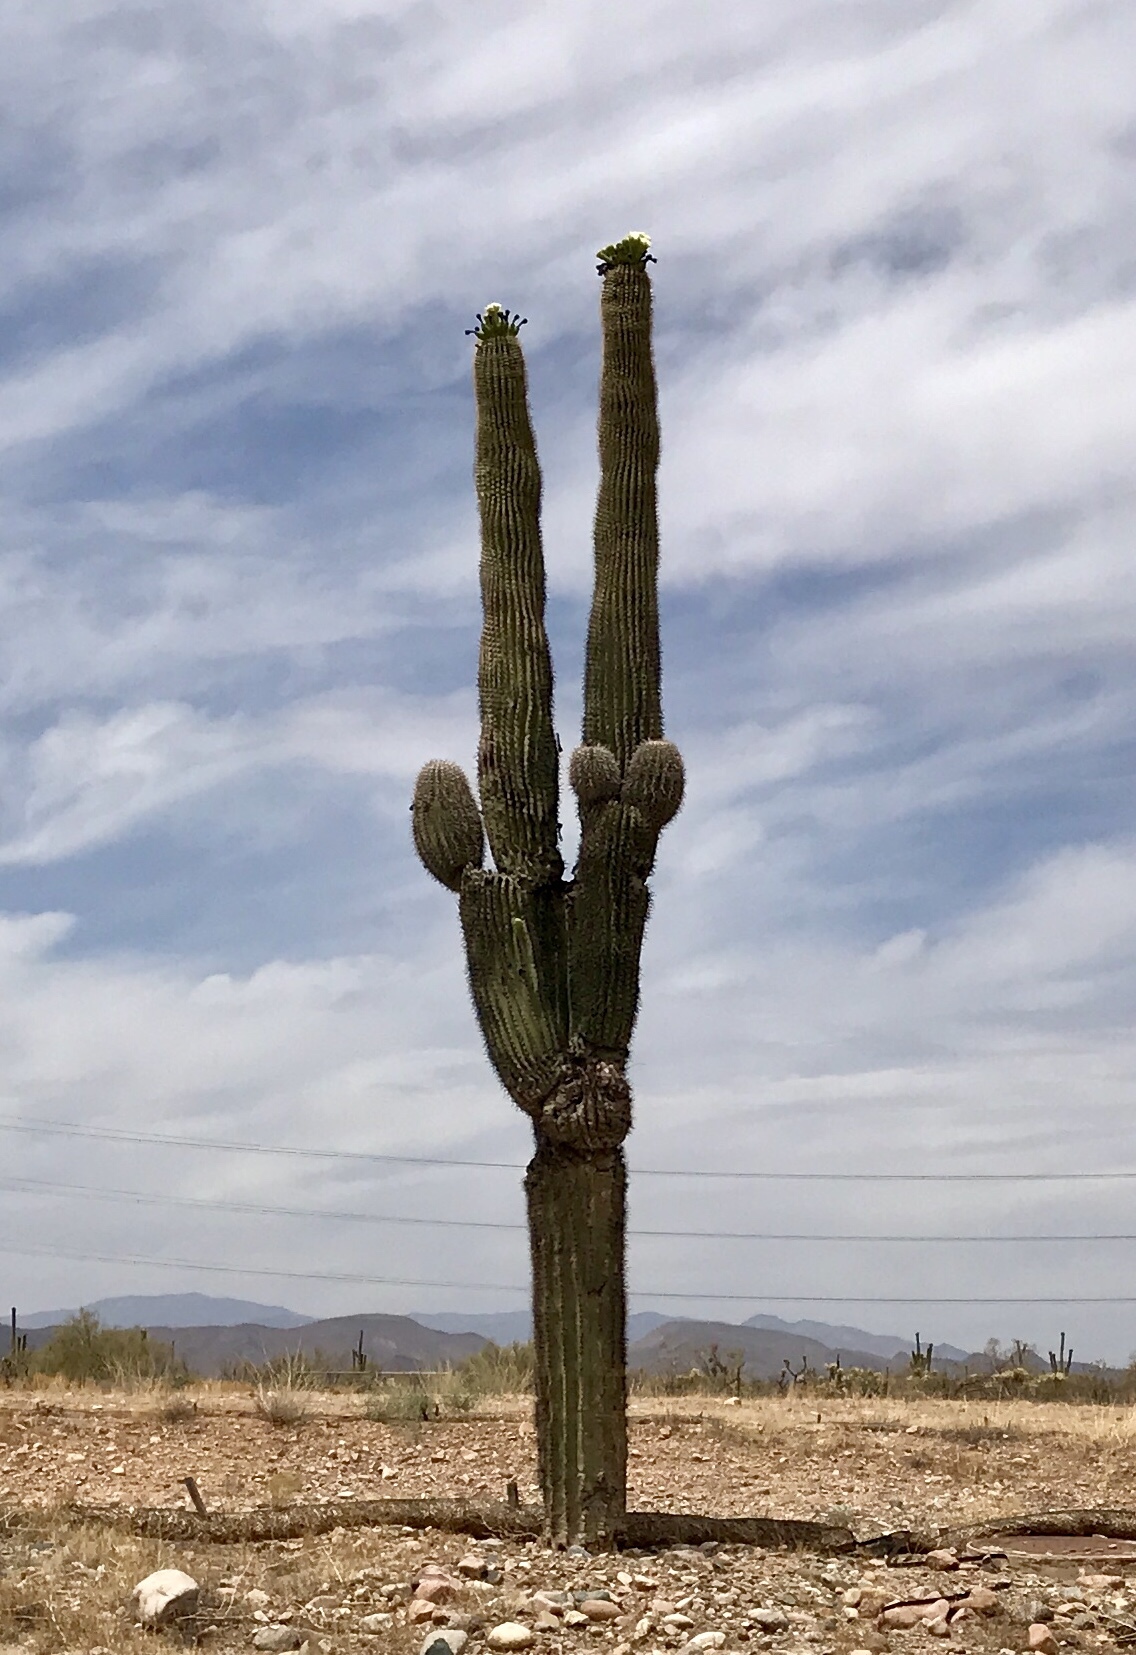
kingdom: Plantae
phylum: Tracheophyta
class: Magnoliopsida
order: Caryophyllales
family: Cactaceae
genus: Carnegiea
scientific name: Carnegiea gigantea
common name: Saguaro
